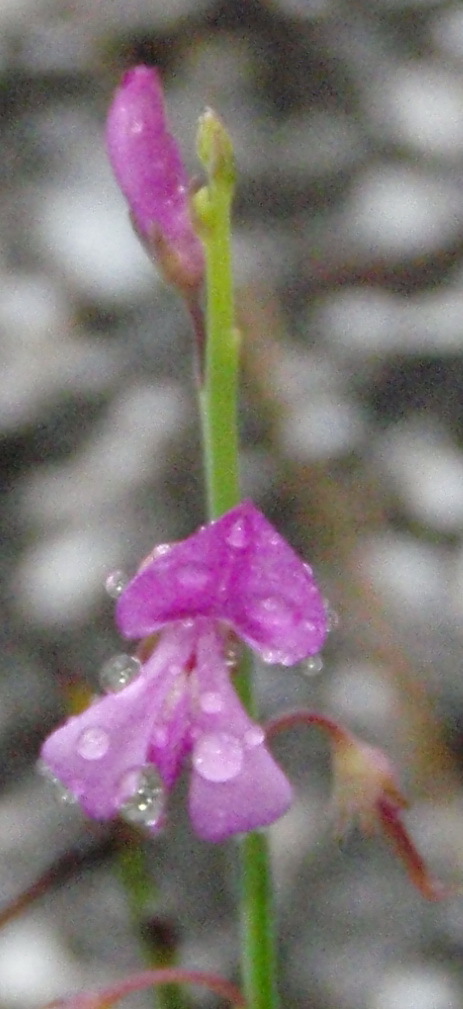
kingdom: Plantae
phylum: Tracheophyta
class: Magnoliopsida
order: Fabales
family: Fabaceae
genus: Indigofera
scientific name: Indigofera ionii
